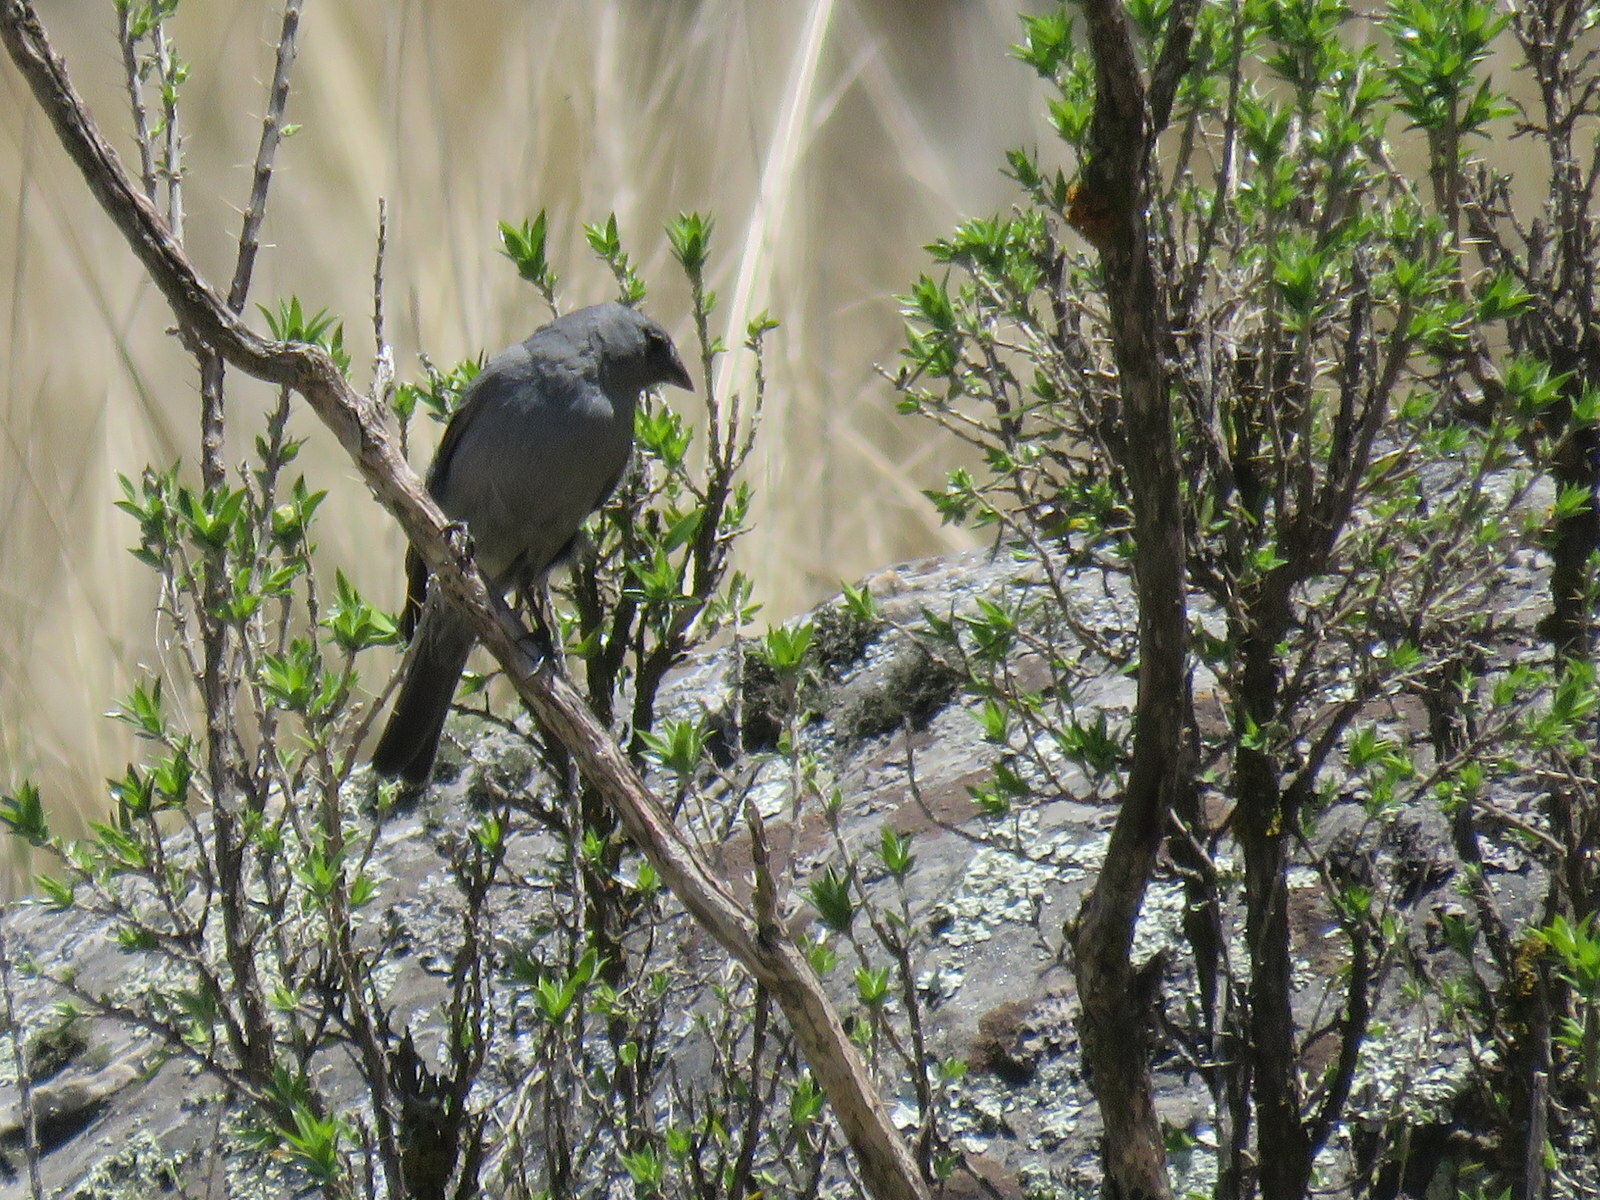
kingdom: Animalia
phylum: Chordata
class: Aves
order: Passeriformes
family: Thraupidae
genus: Geospizopsis
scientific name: Geospizopsis unicolor
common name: Plumbeous sierra-finch
